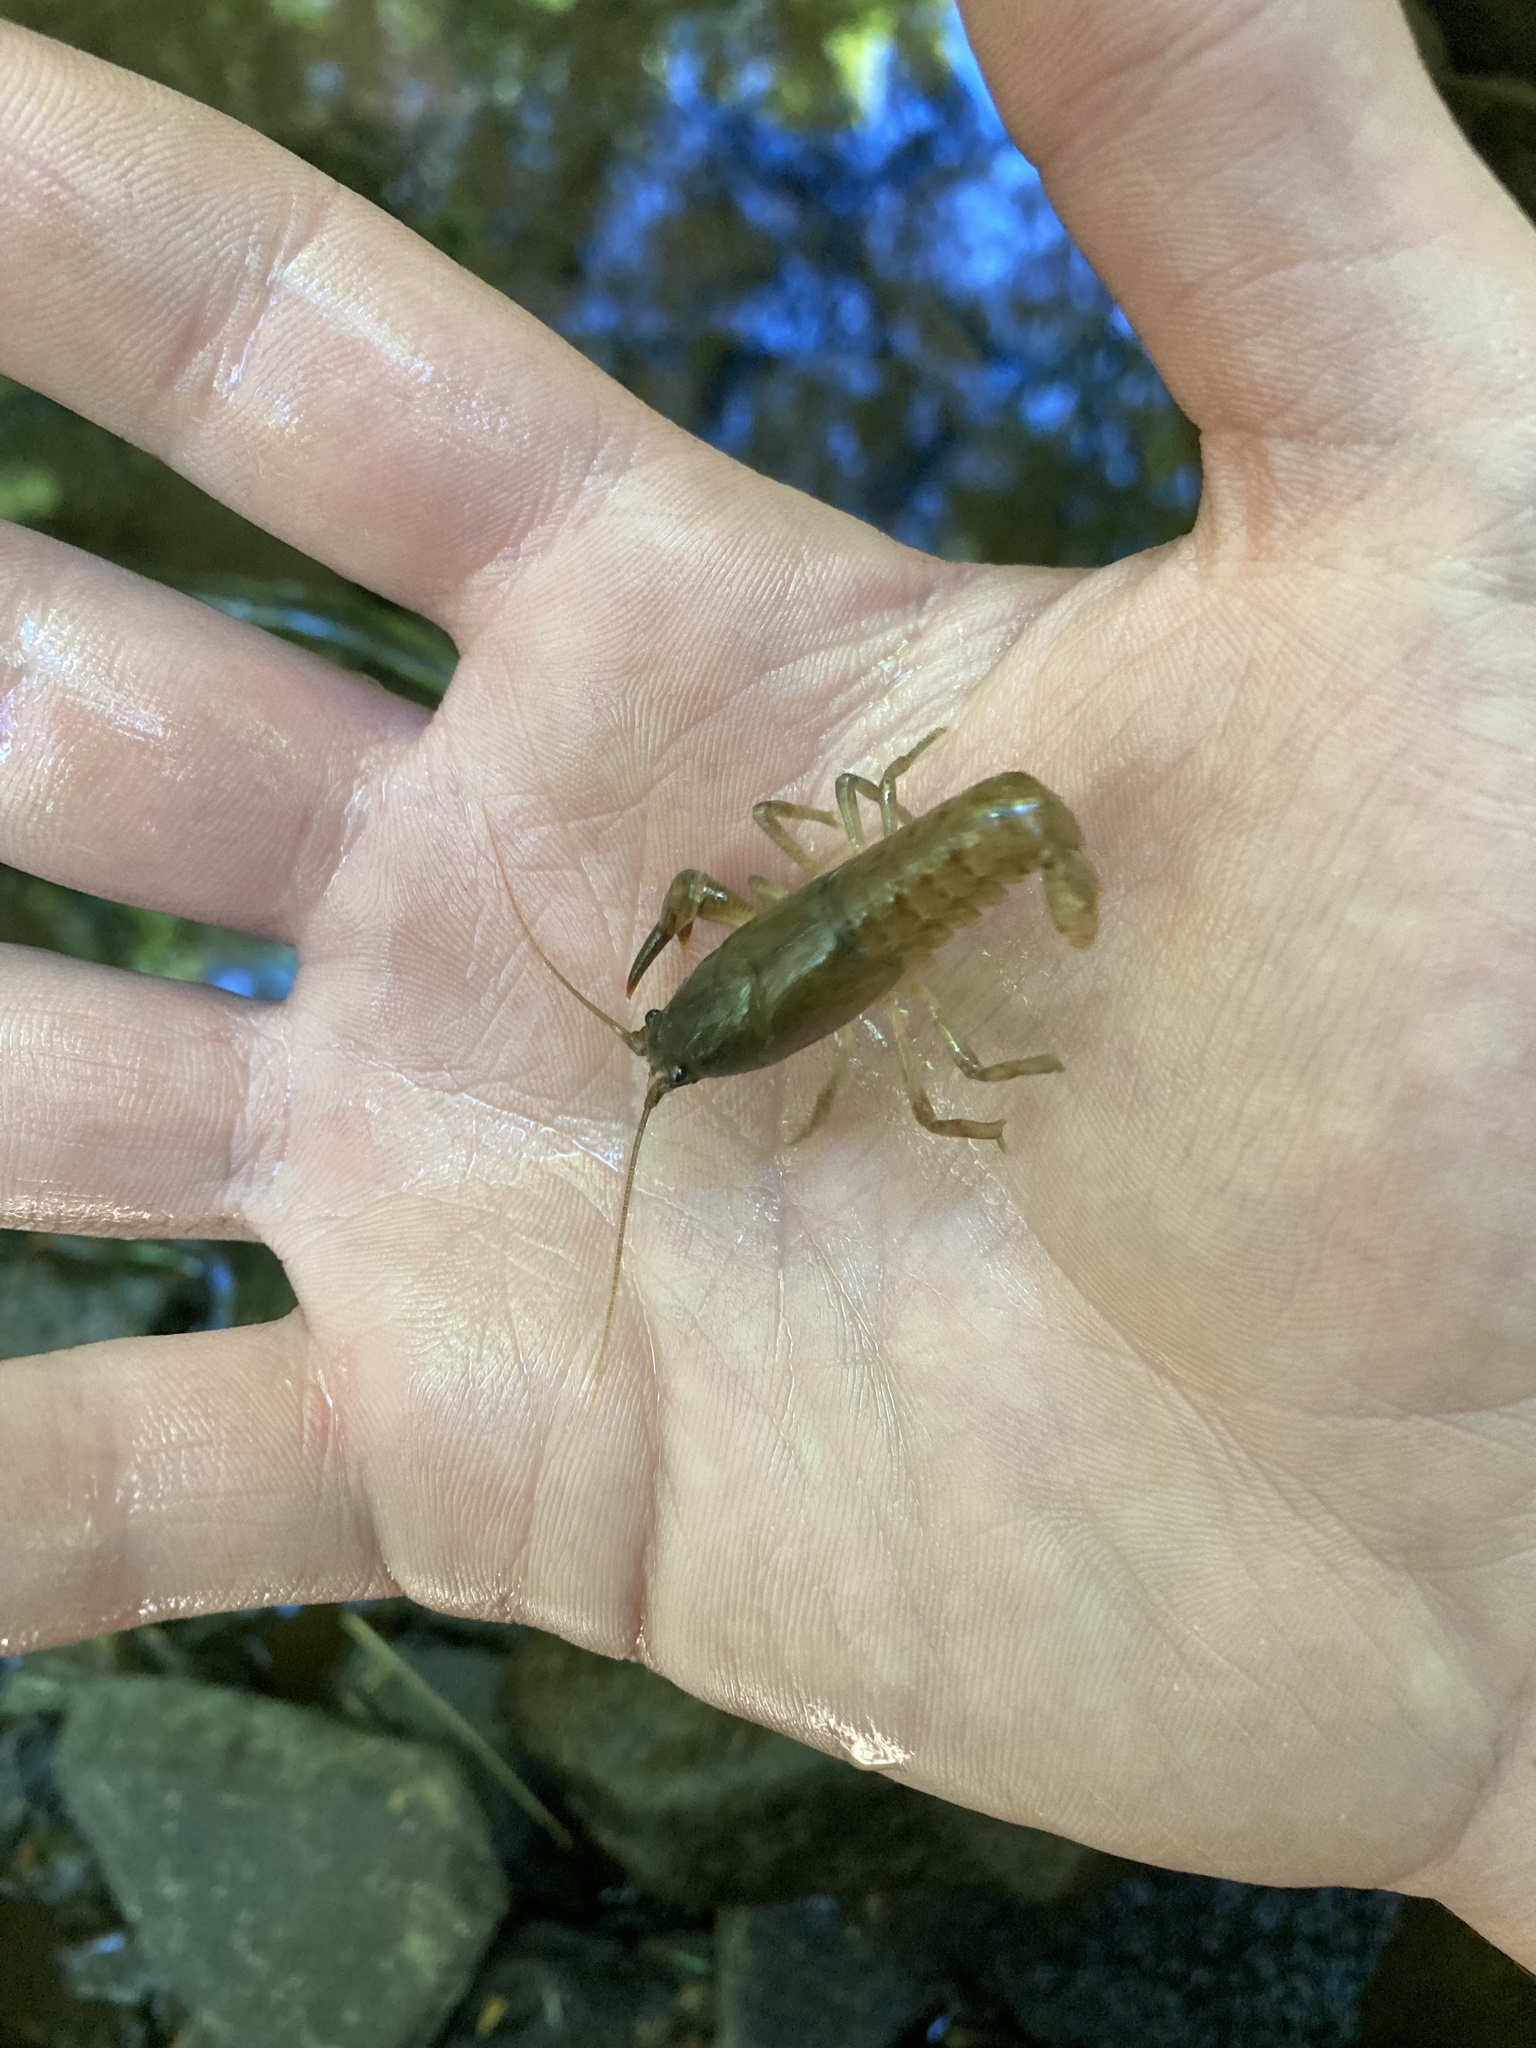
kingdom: Animalia
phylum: Arthropoda
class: Malacostraca
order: Decapoda
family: Cambaridae
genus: Cambarus
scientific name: Cambarus bartonii
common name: Appalachian brook crayfish
